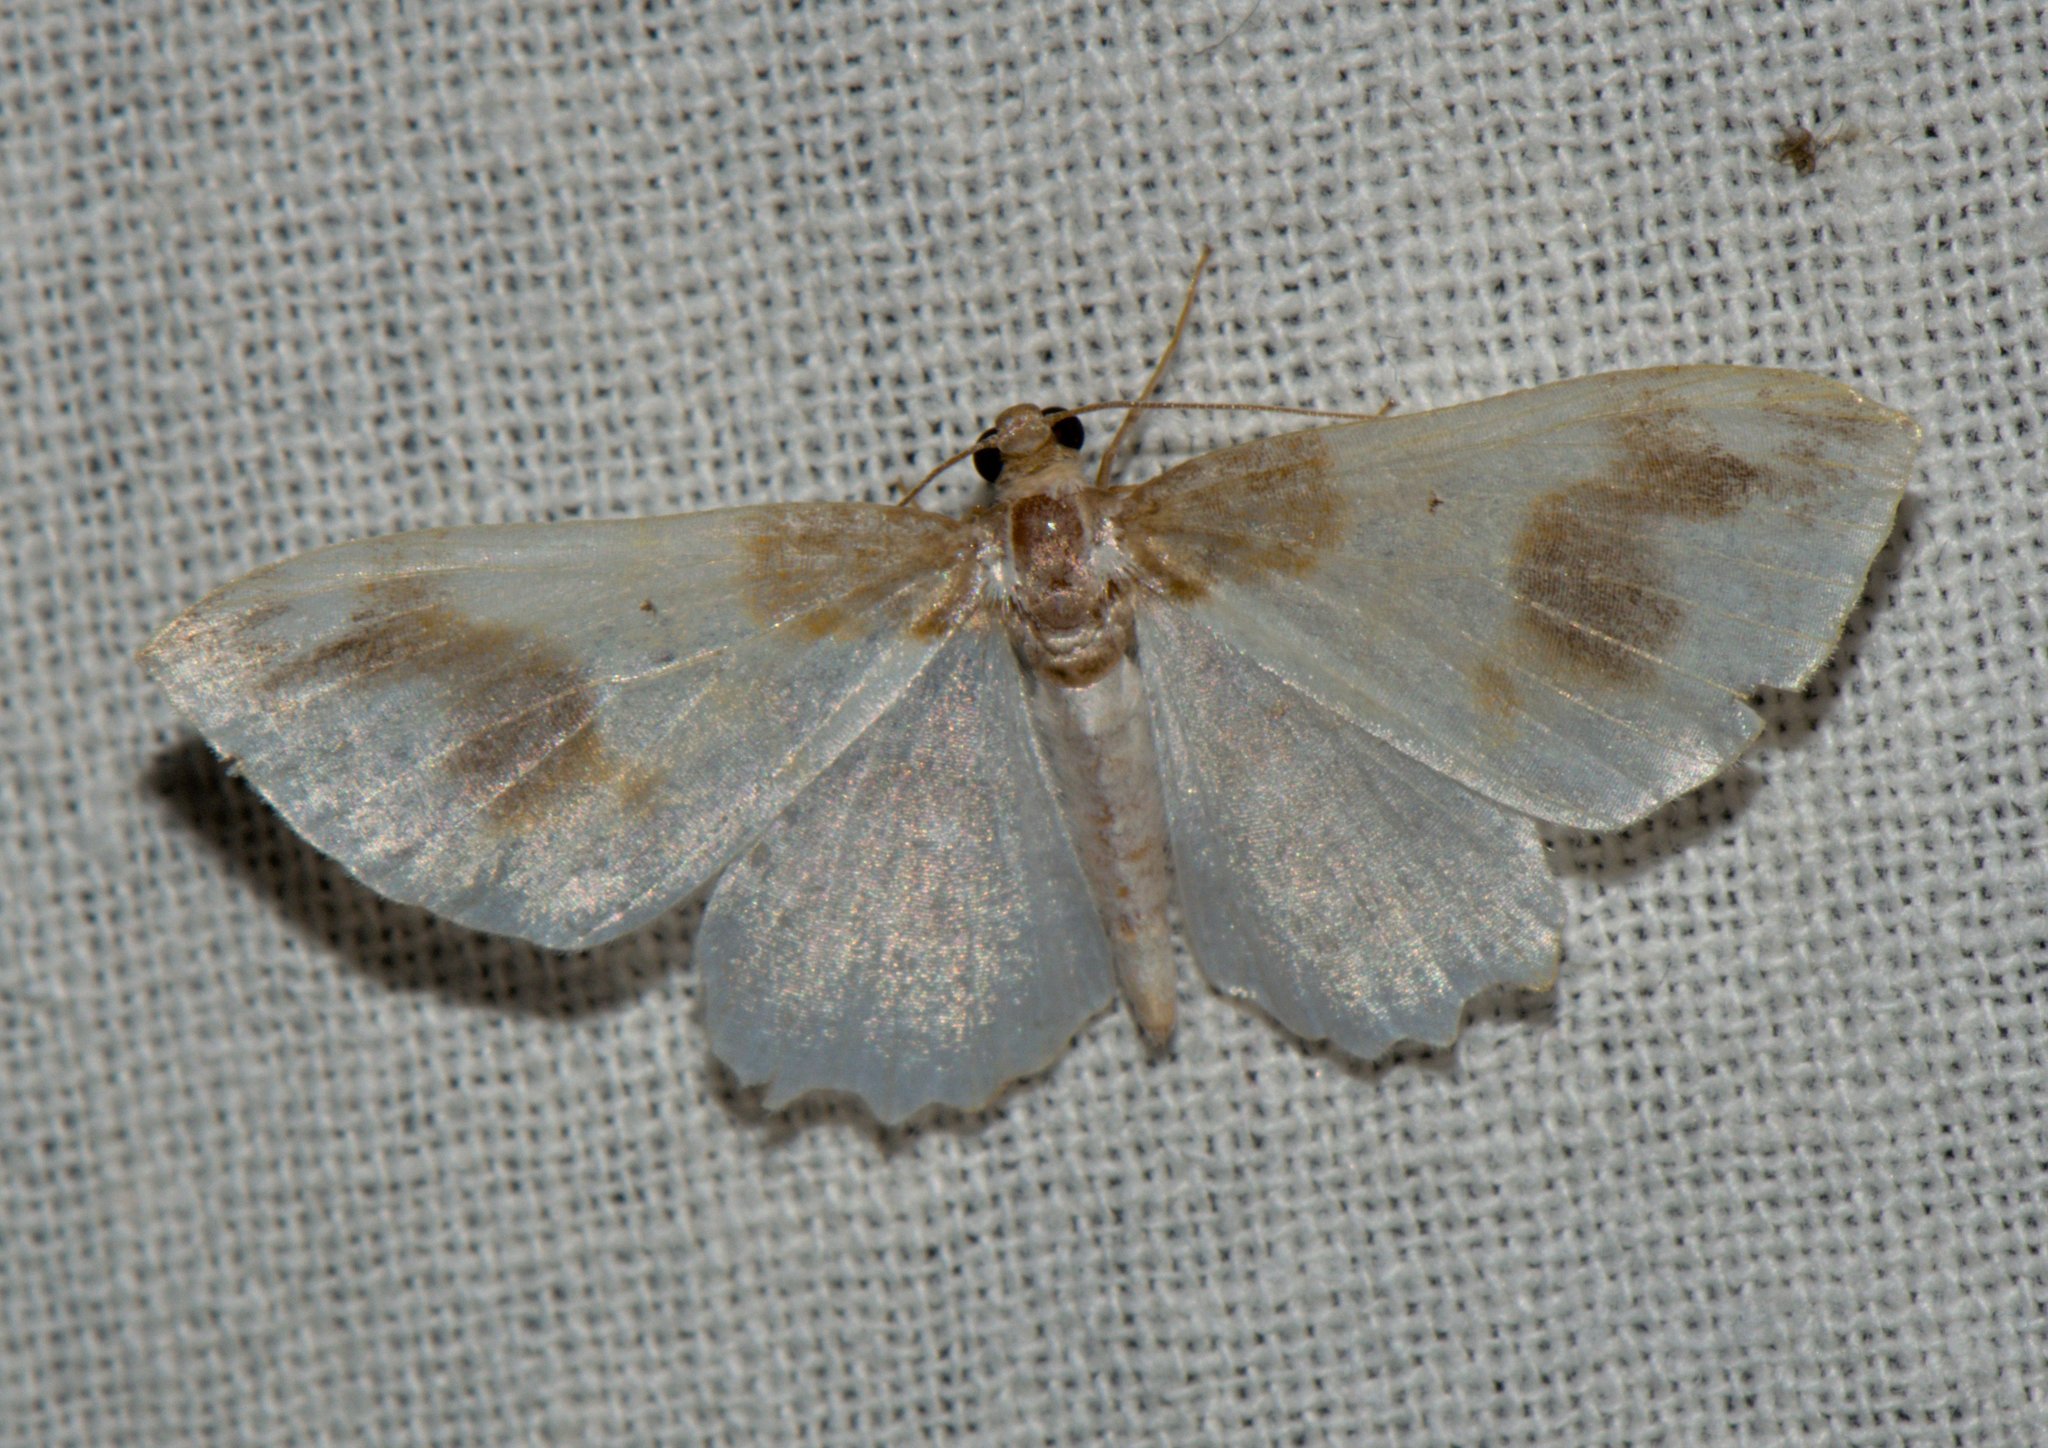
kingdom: Animalia
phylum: Arthropoda
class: Insecta
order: Lepidoptera
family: Geometridae
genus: Agnibesa
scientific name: Agnibesa pictaria
